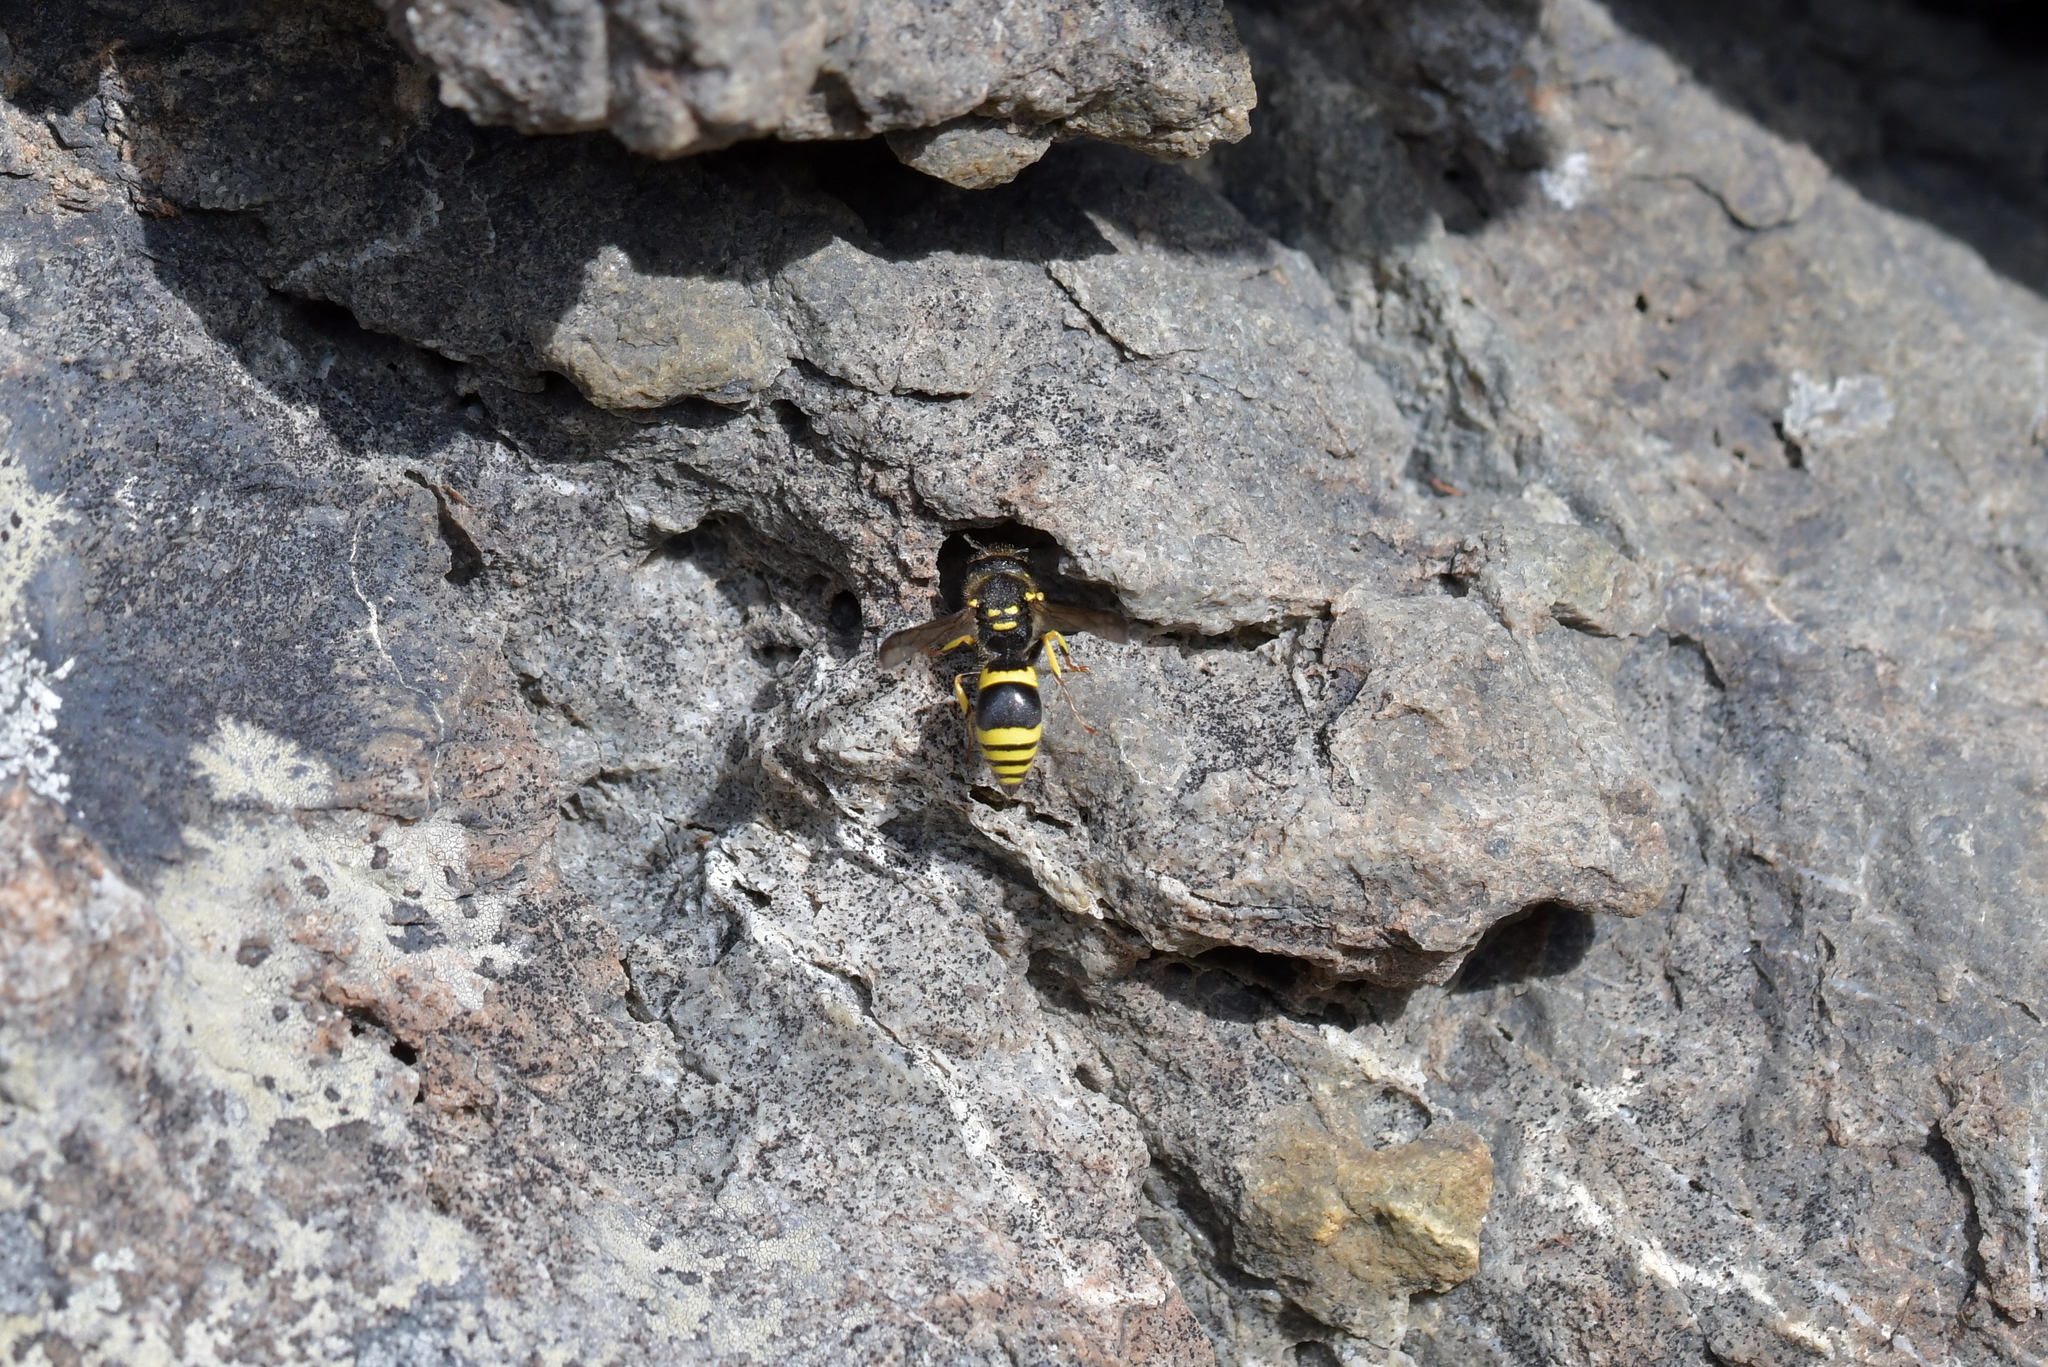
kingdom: Animalia
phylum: Arthropoda
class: Insecta
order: Hymenoptera
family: Vespidae
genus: Ancistrocerus
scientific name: Ancistrocerus gazella
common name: European tube wasp
